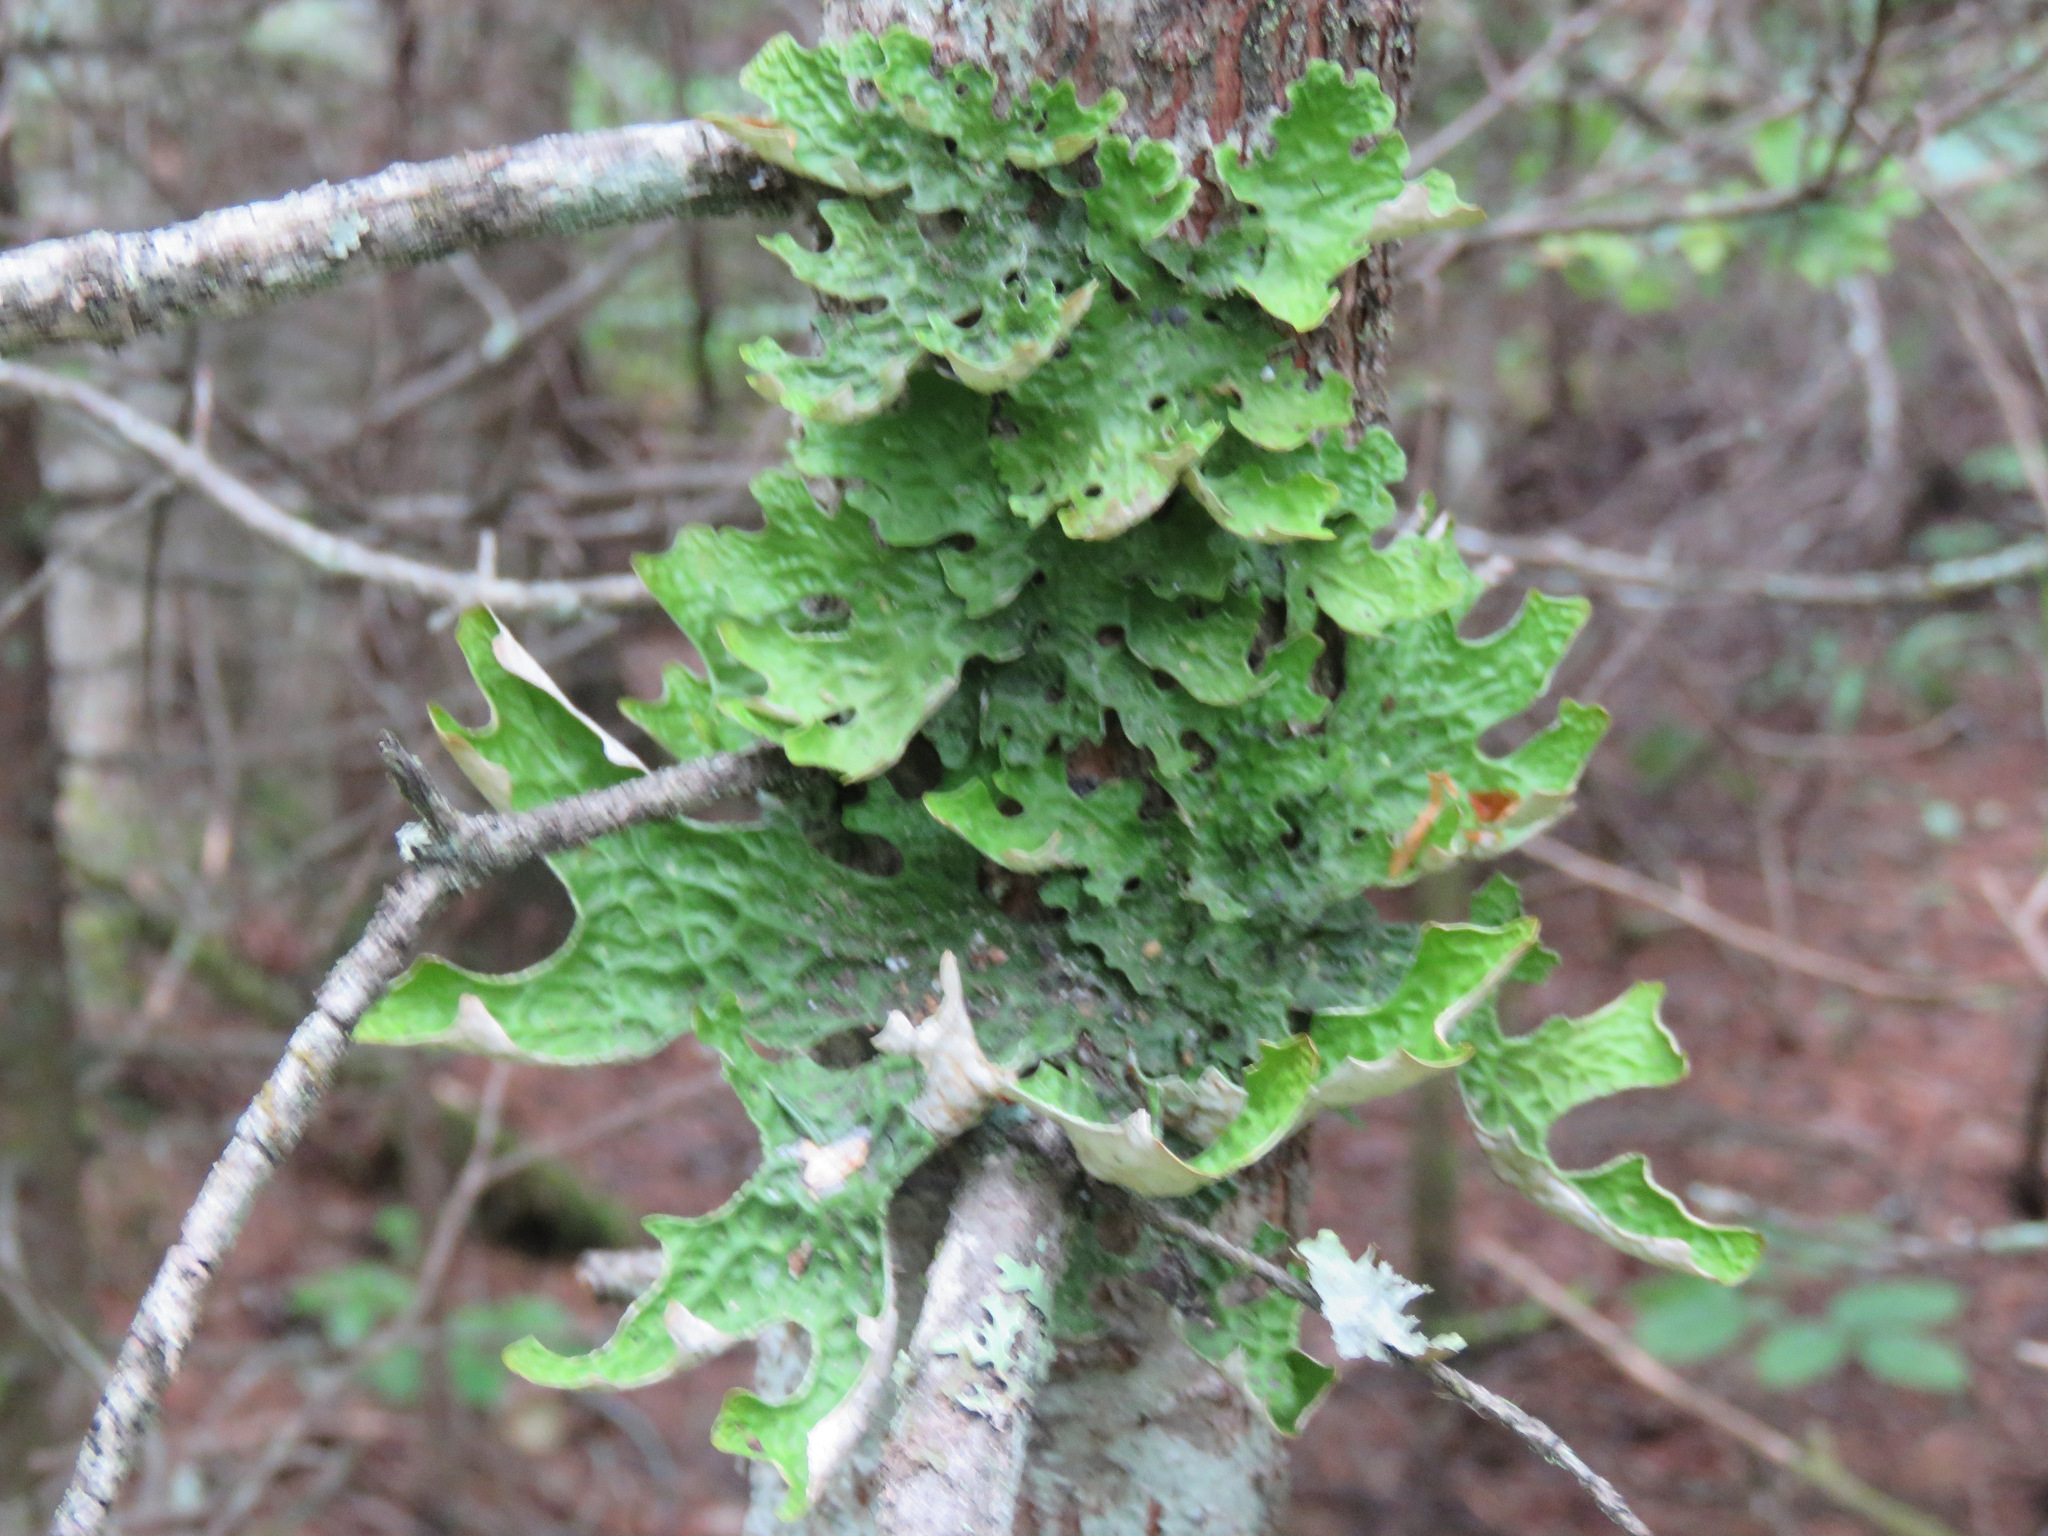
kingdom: Fungi
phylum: Ascomycota
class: Lecanoromycetes
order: Peltigerales
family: Lobariaceae
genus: Lobaria
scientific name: Lobaria pulmonaria
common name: Lungwort
